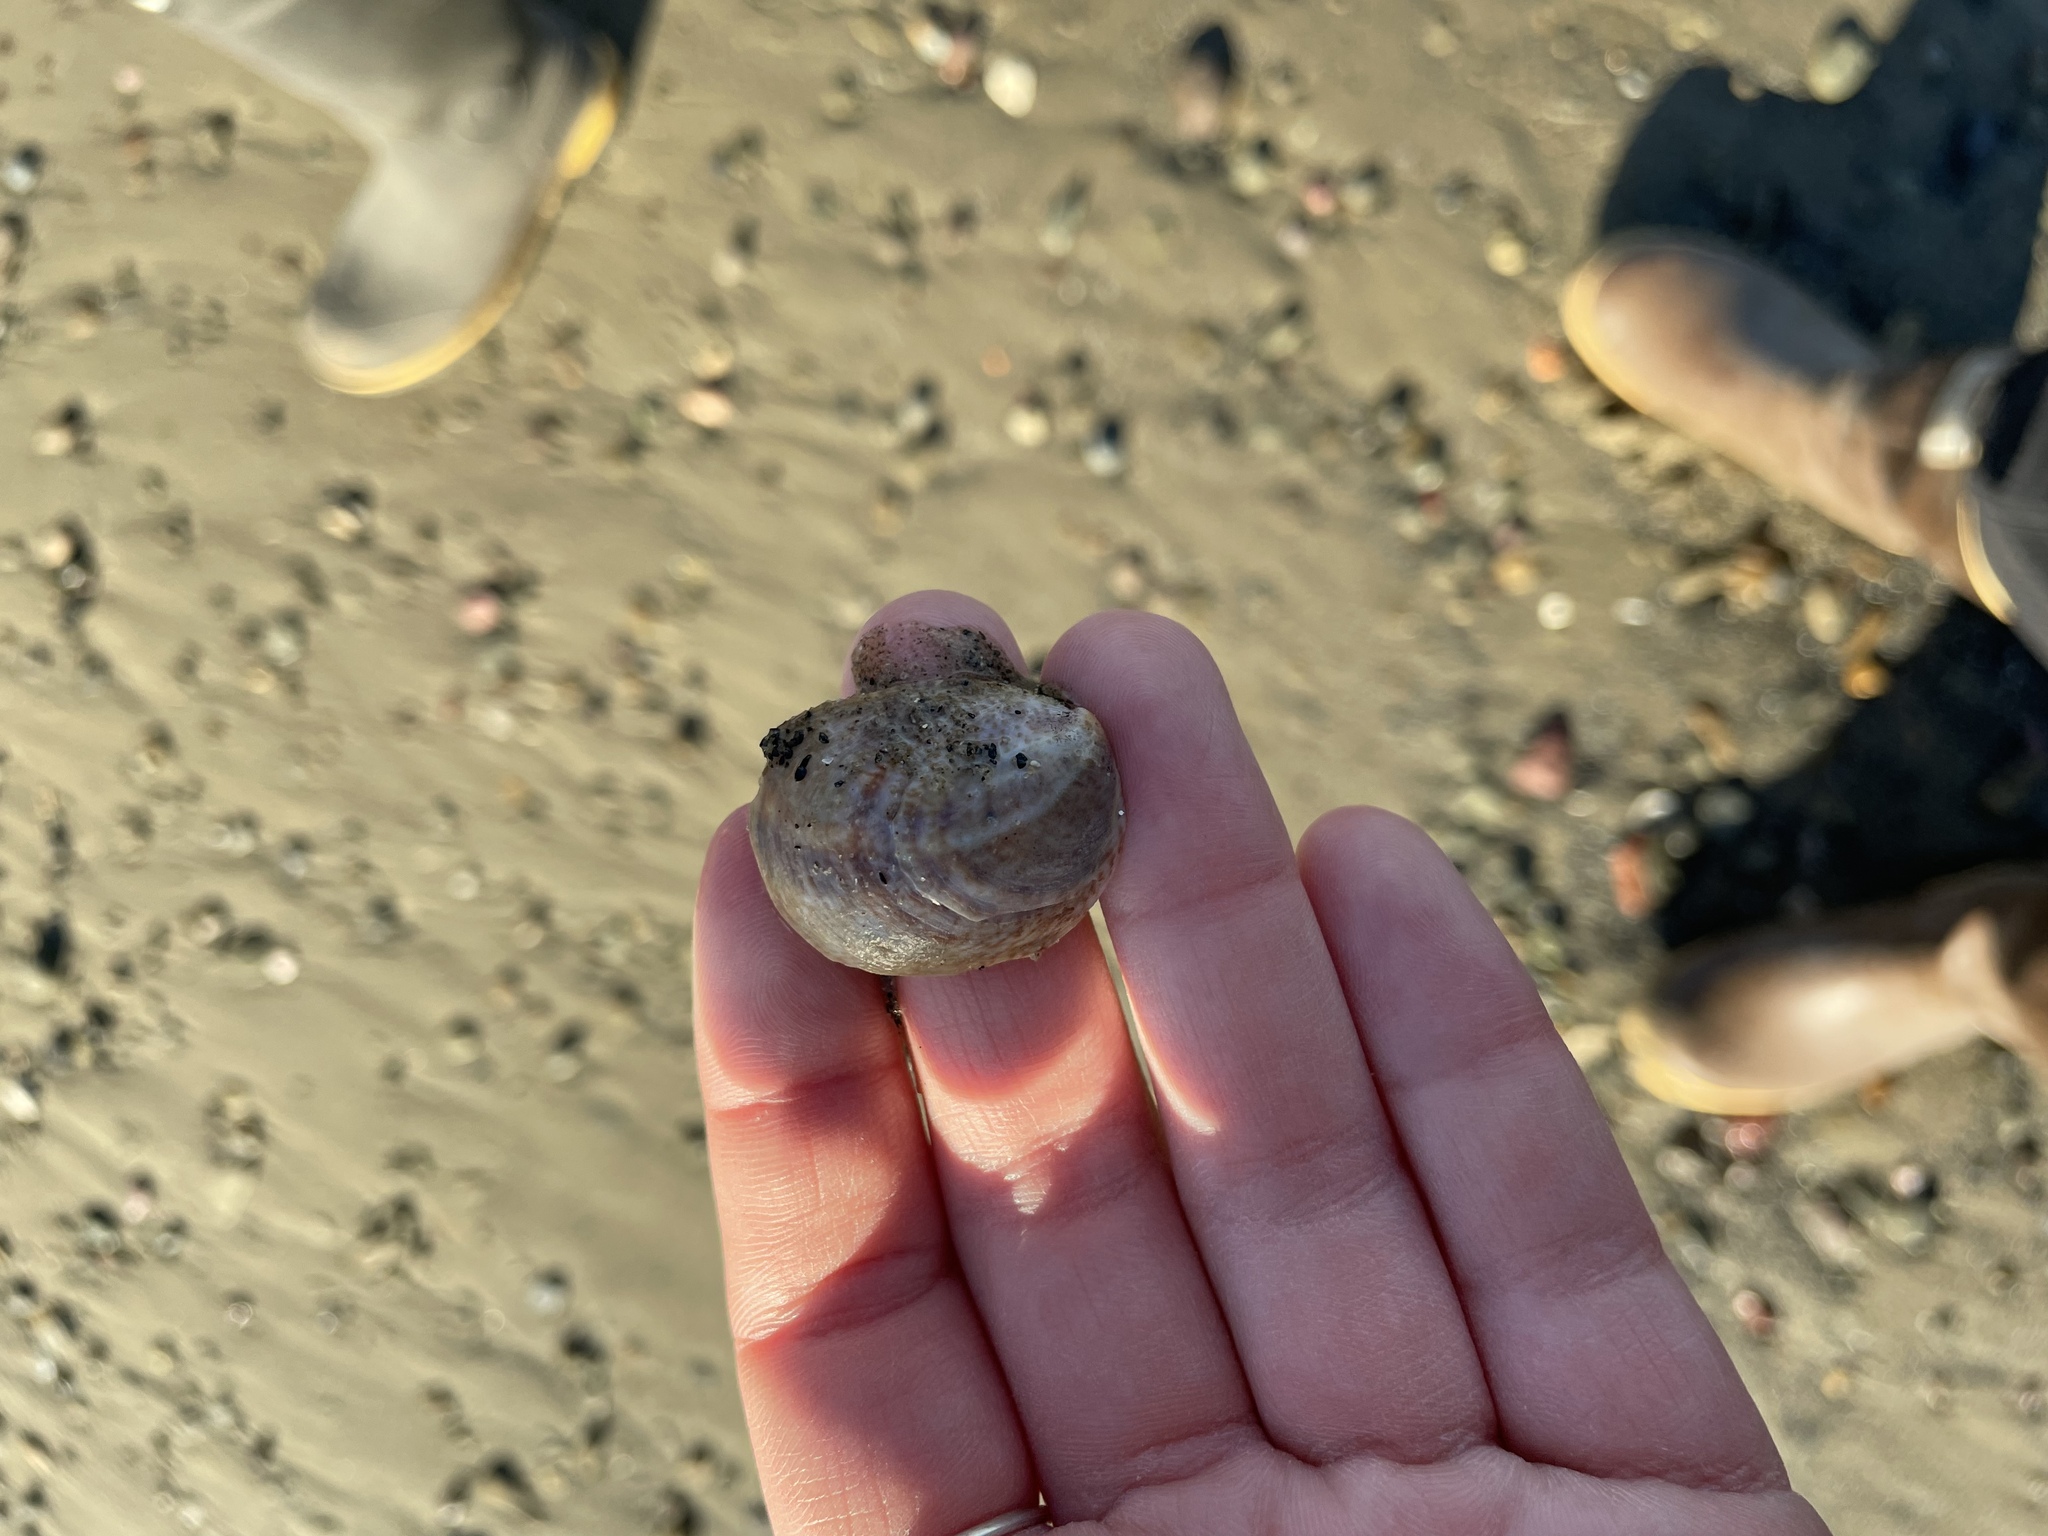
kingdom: Animalia
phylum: Mollusca
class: Gastropoda
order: Littorinimorpha
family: Calyptraeidae
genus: Crepidula
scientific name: Crepidula fornicata
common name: Slipper limpet
